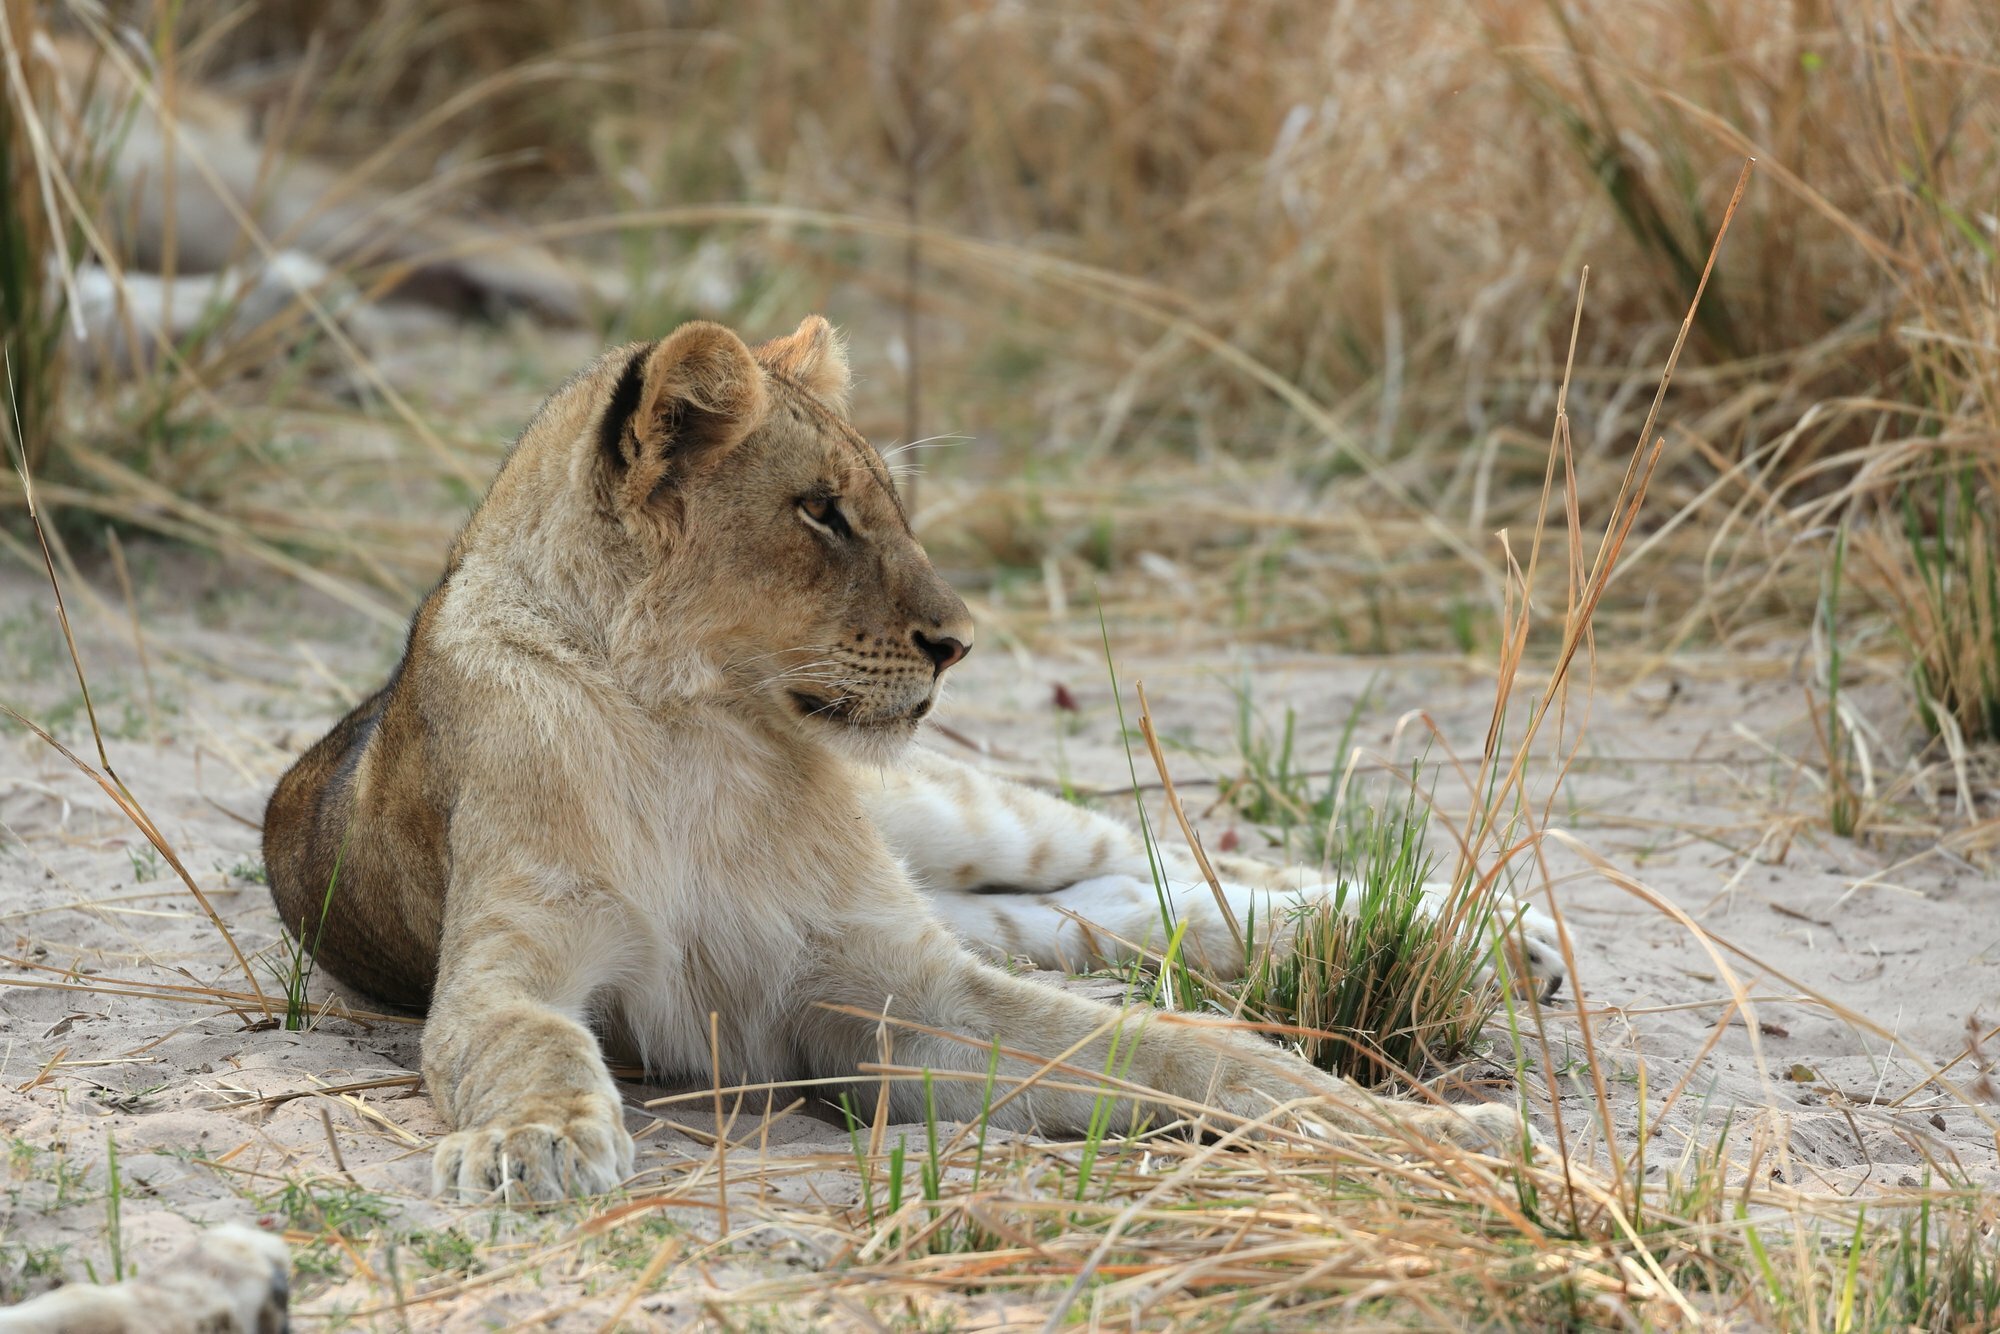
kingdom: Animalia
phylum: Chordata
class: Mammalia
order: Carnivora
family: Felidae
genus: Panthera
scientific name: Panthera leo
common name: Lion
